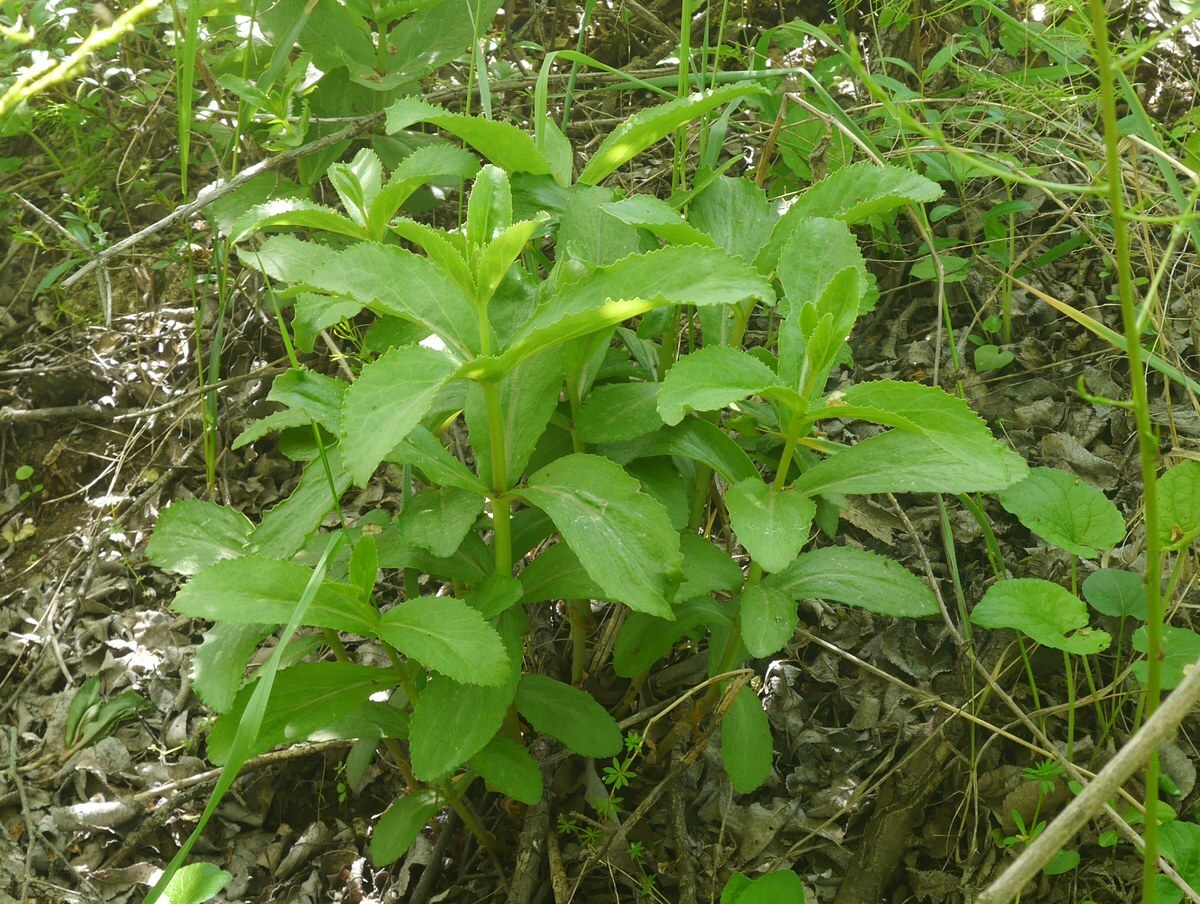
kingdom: Plantae
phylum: Tracheophyta
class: Magnoliopsida
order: Saxifragales
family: Crassulaceae
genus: Hylotelephium
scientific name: Hylotelephium maximum
